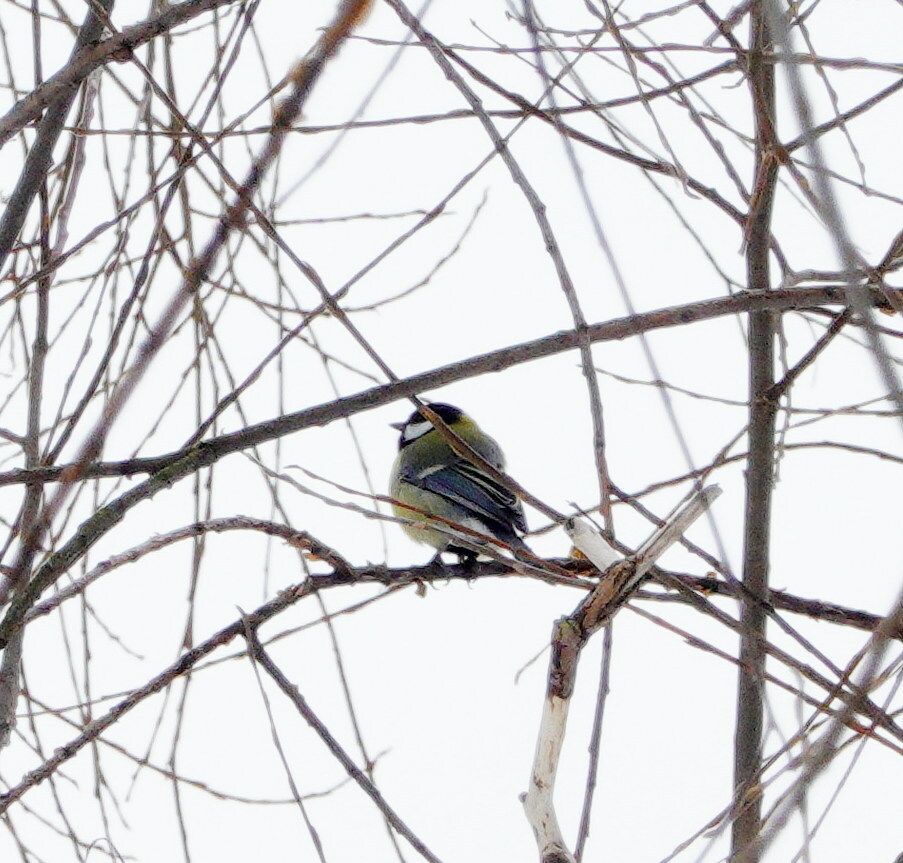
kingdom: Animalia
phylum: Chordata
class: Aves
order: Passeriformes
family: Paridae
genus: Parus
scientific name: Parus major
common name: Great tit
